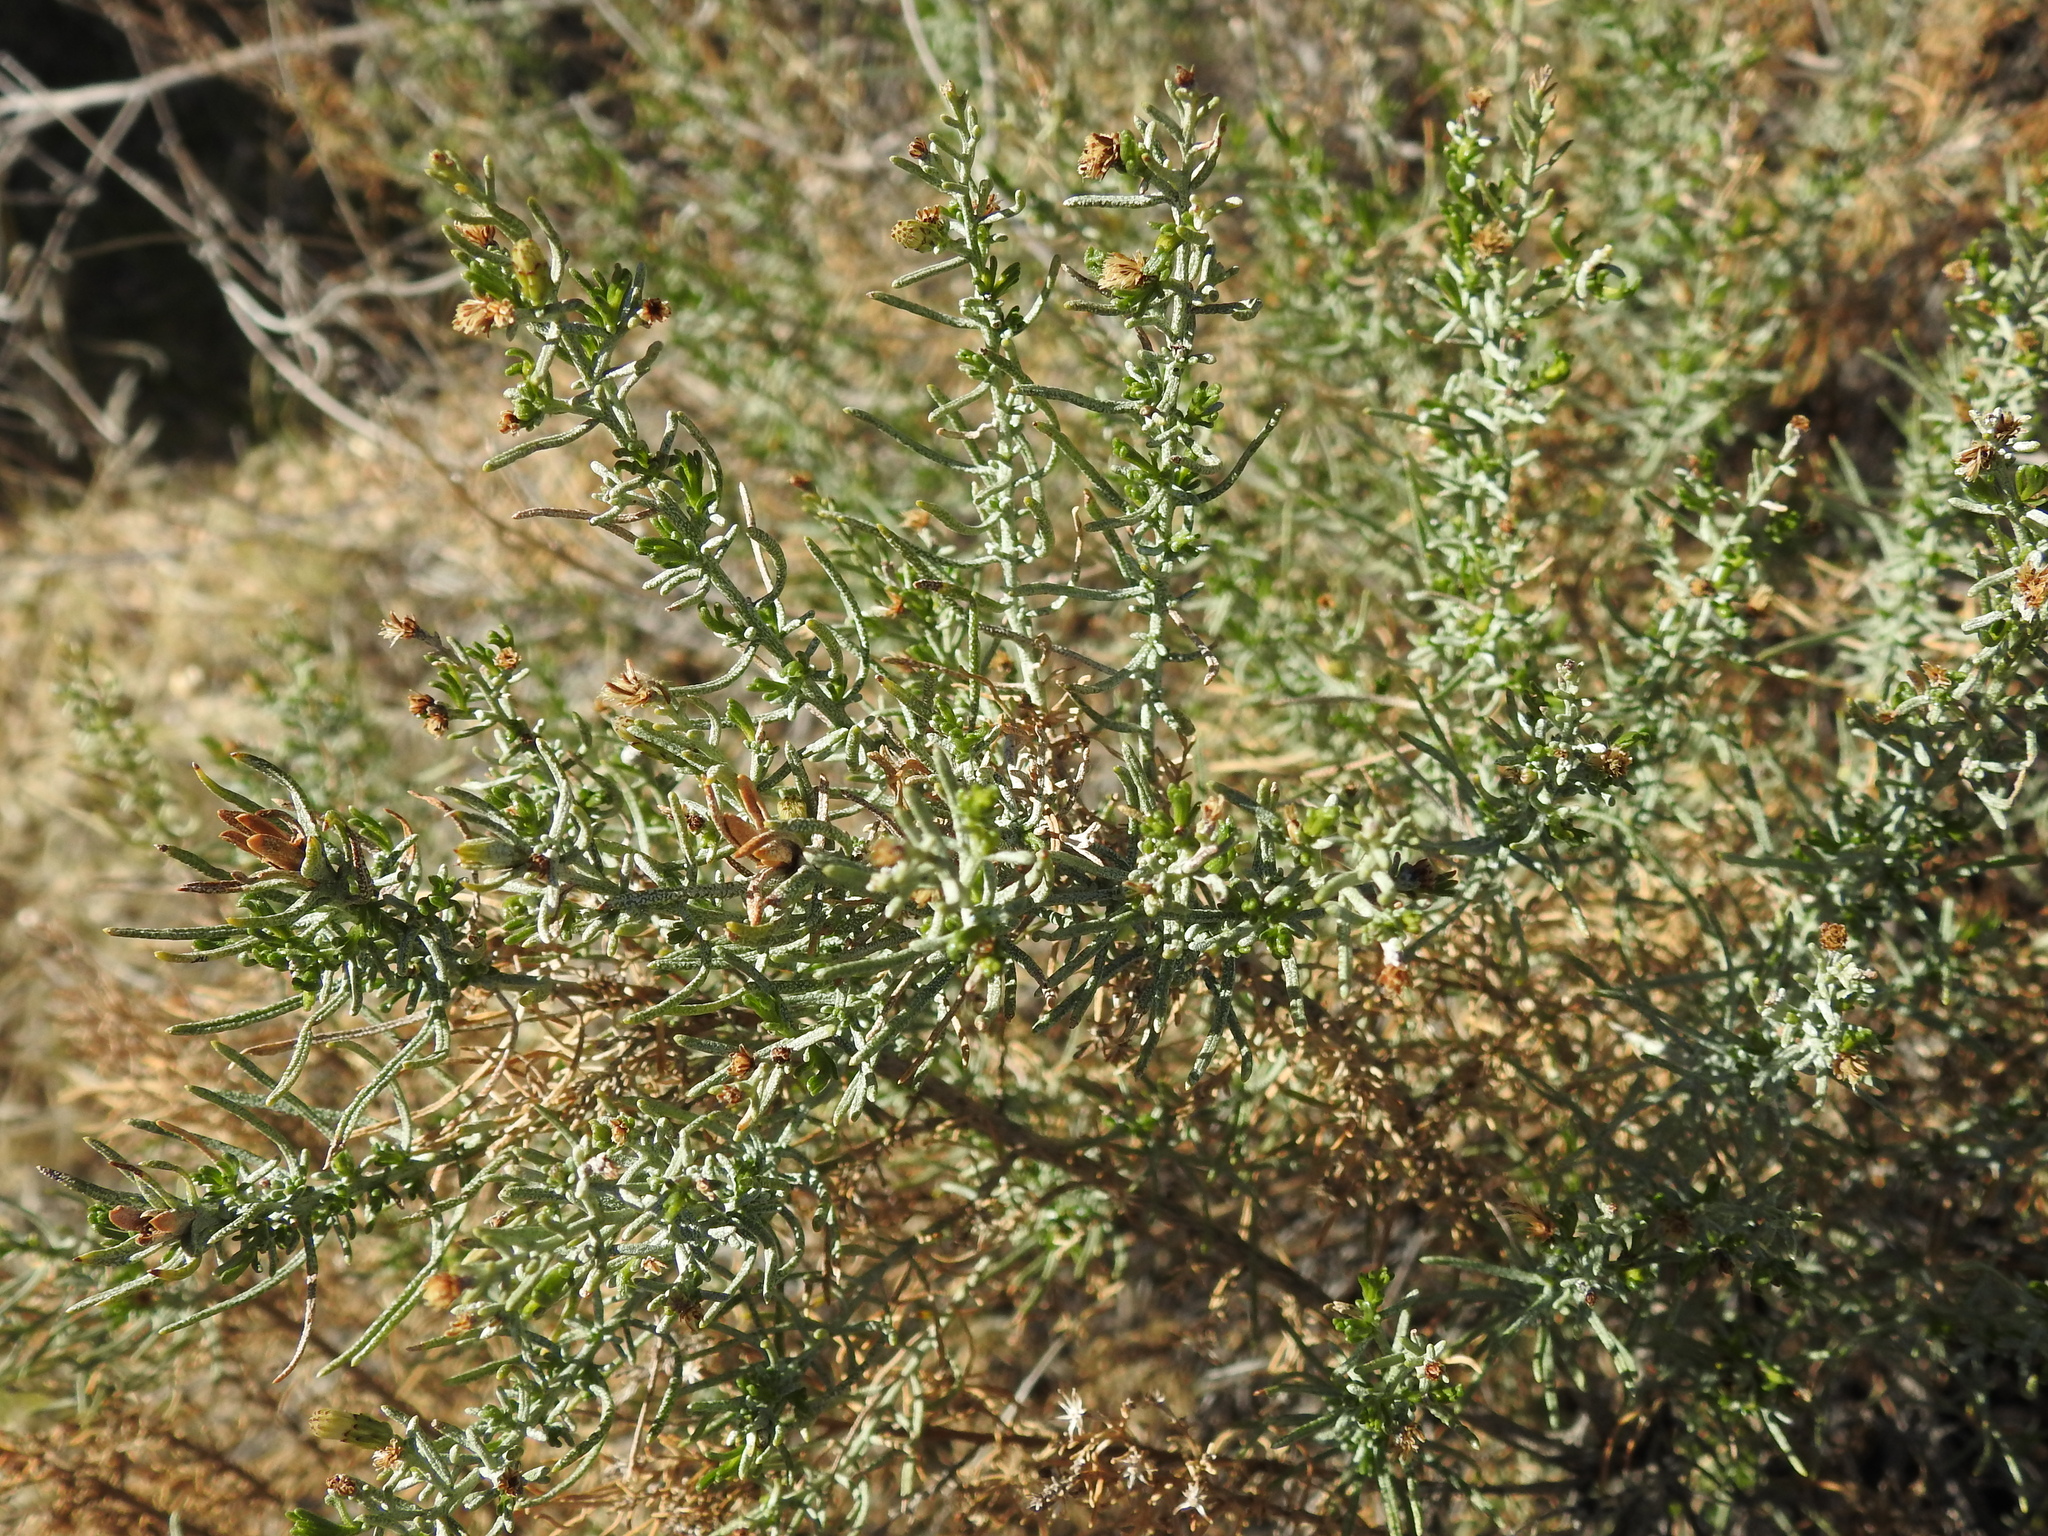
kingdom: Plantae
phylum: Tracheophyta
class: Magnoliopsida
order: Asterales
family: Asteraceae
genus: Ericameria
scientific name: Ericameria laricifolia
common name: Turpentine-bush
